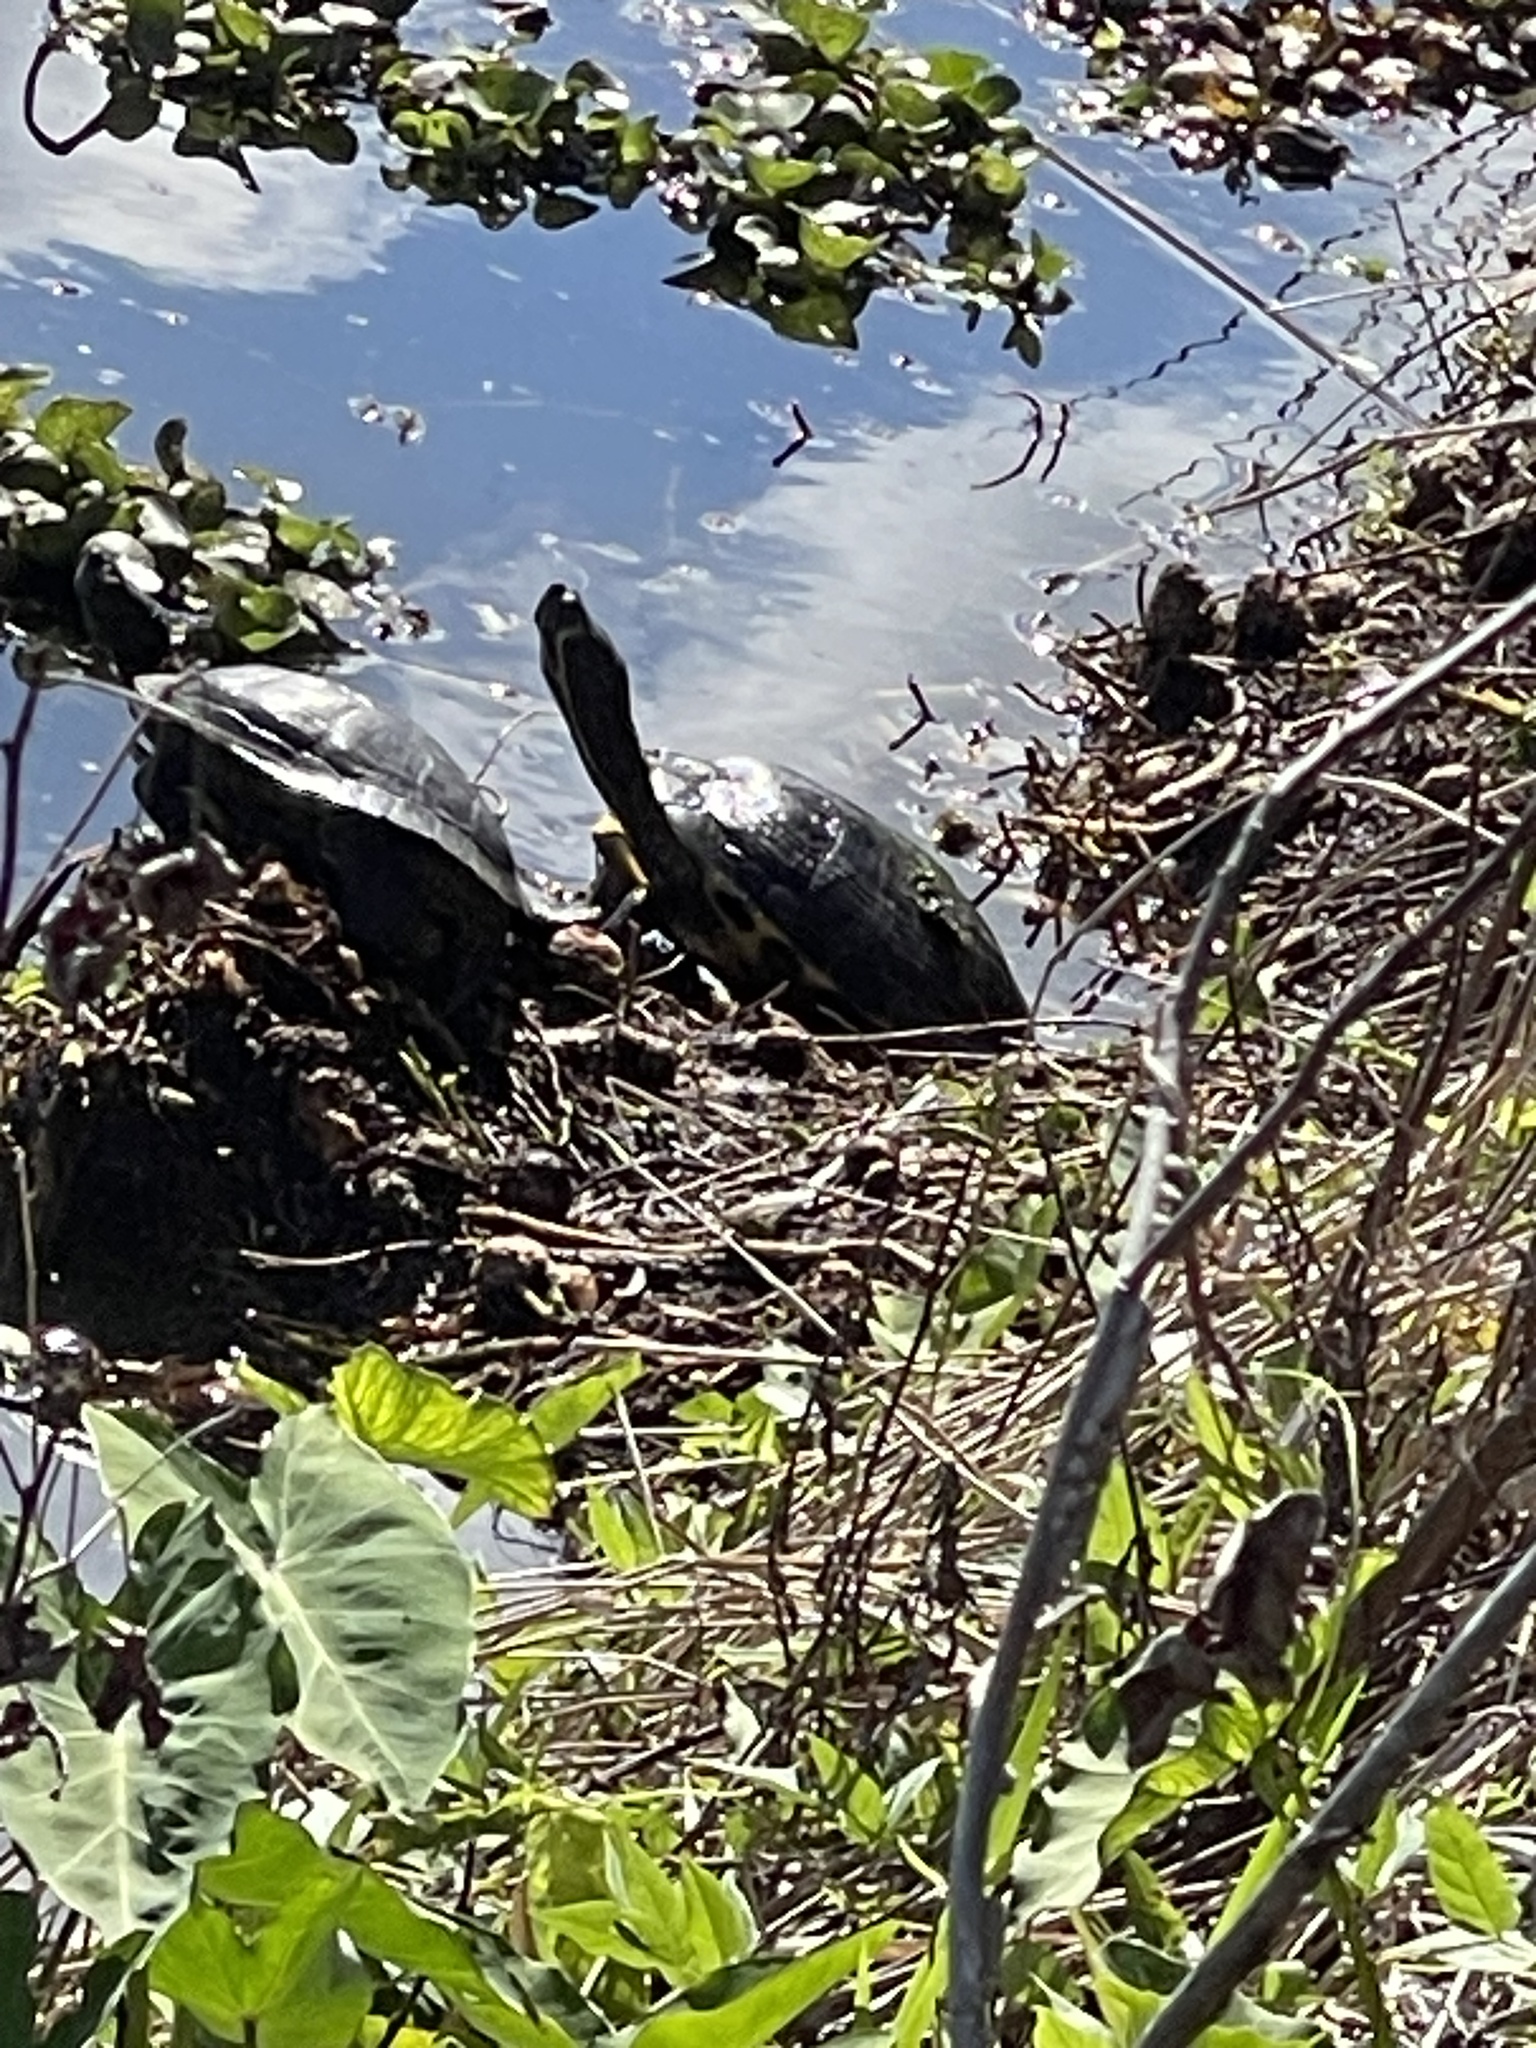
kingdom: Animalia
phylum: Chordata
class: Testudines
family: Emydidae
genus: Trachemys
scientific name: Trachemys scripta
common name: Slider
